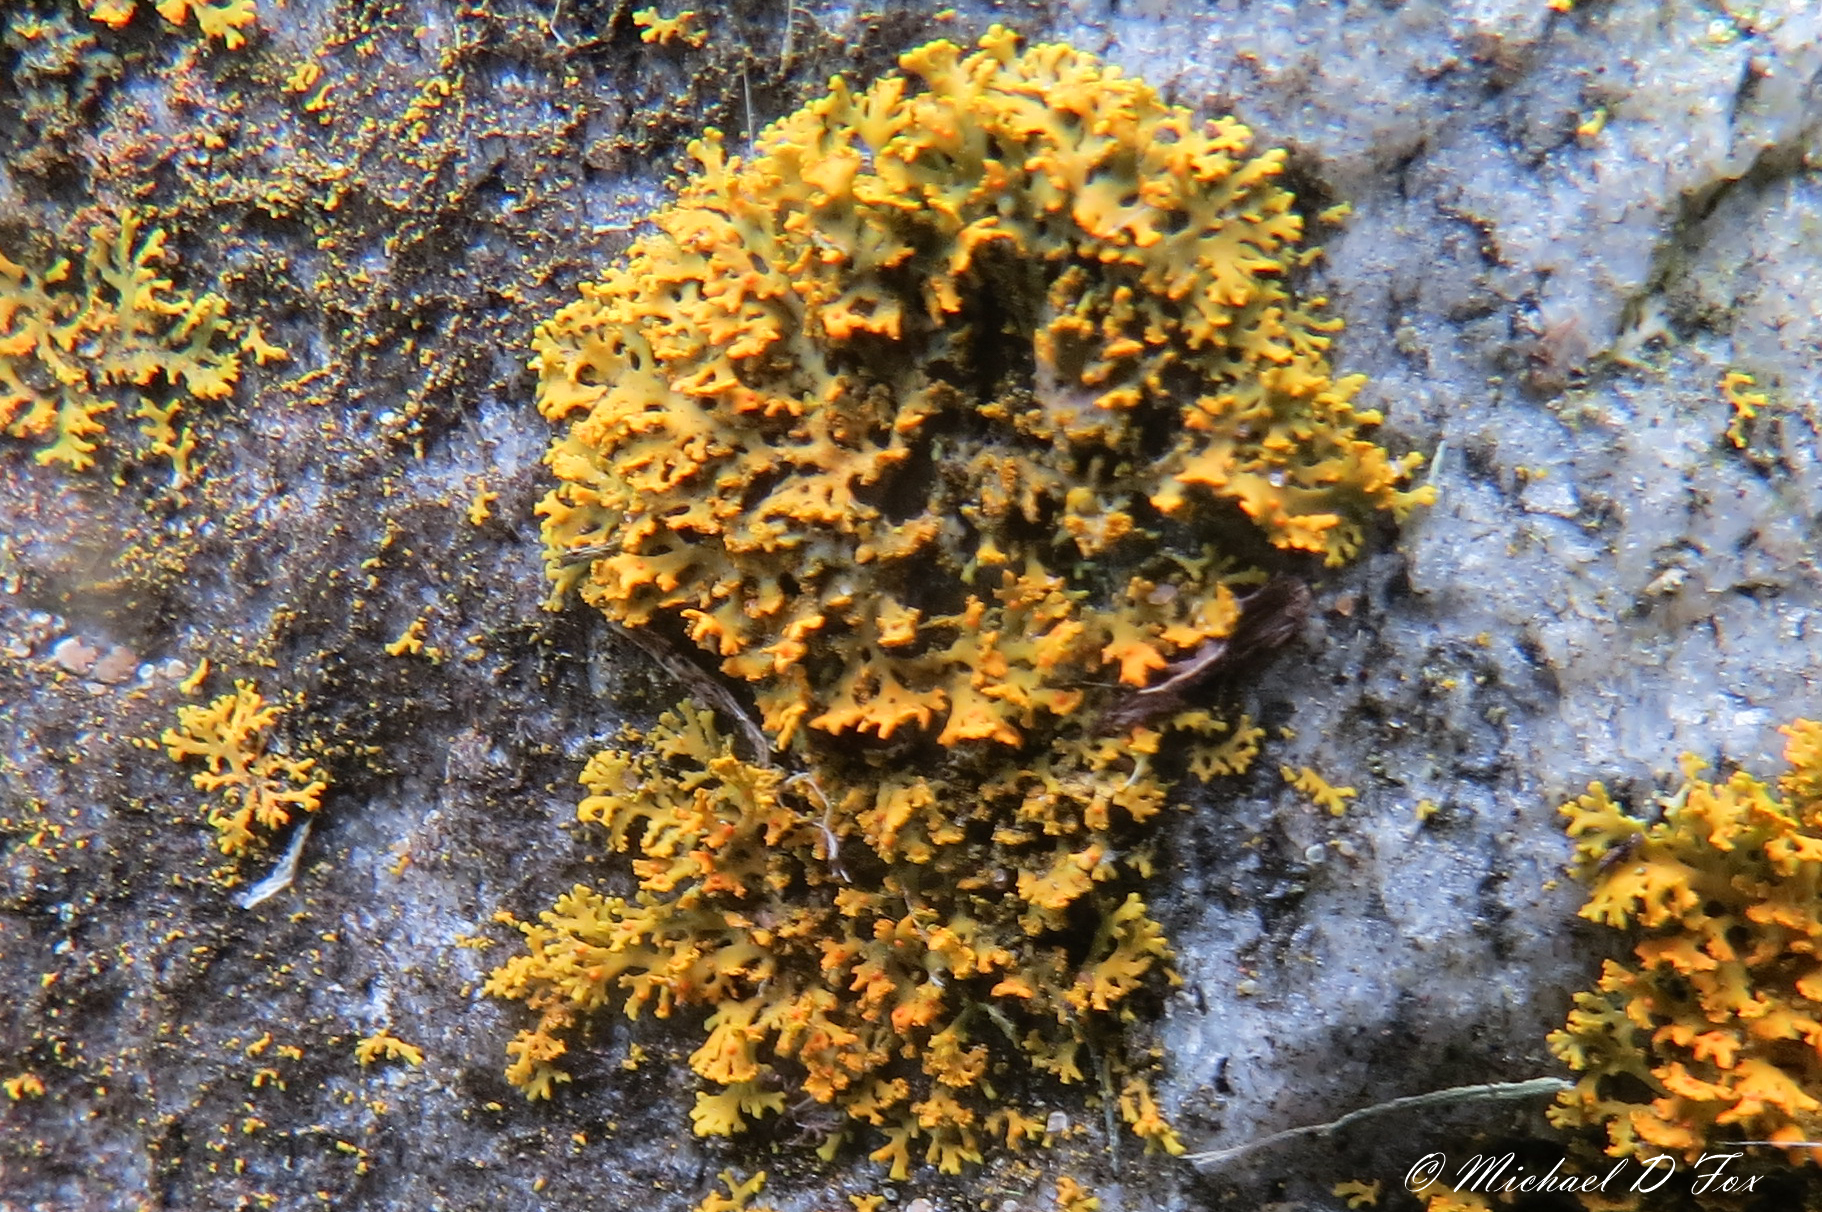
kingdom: Fungi
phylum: Ascomycota
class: Lecanoromycetes
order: Teloschistales
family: Teloschistaceae
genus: Gallowayella
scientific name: Gallowayella weberi
